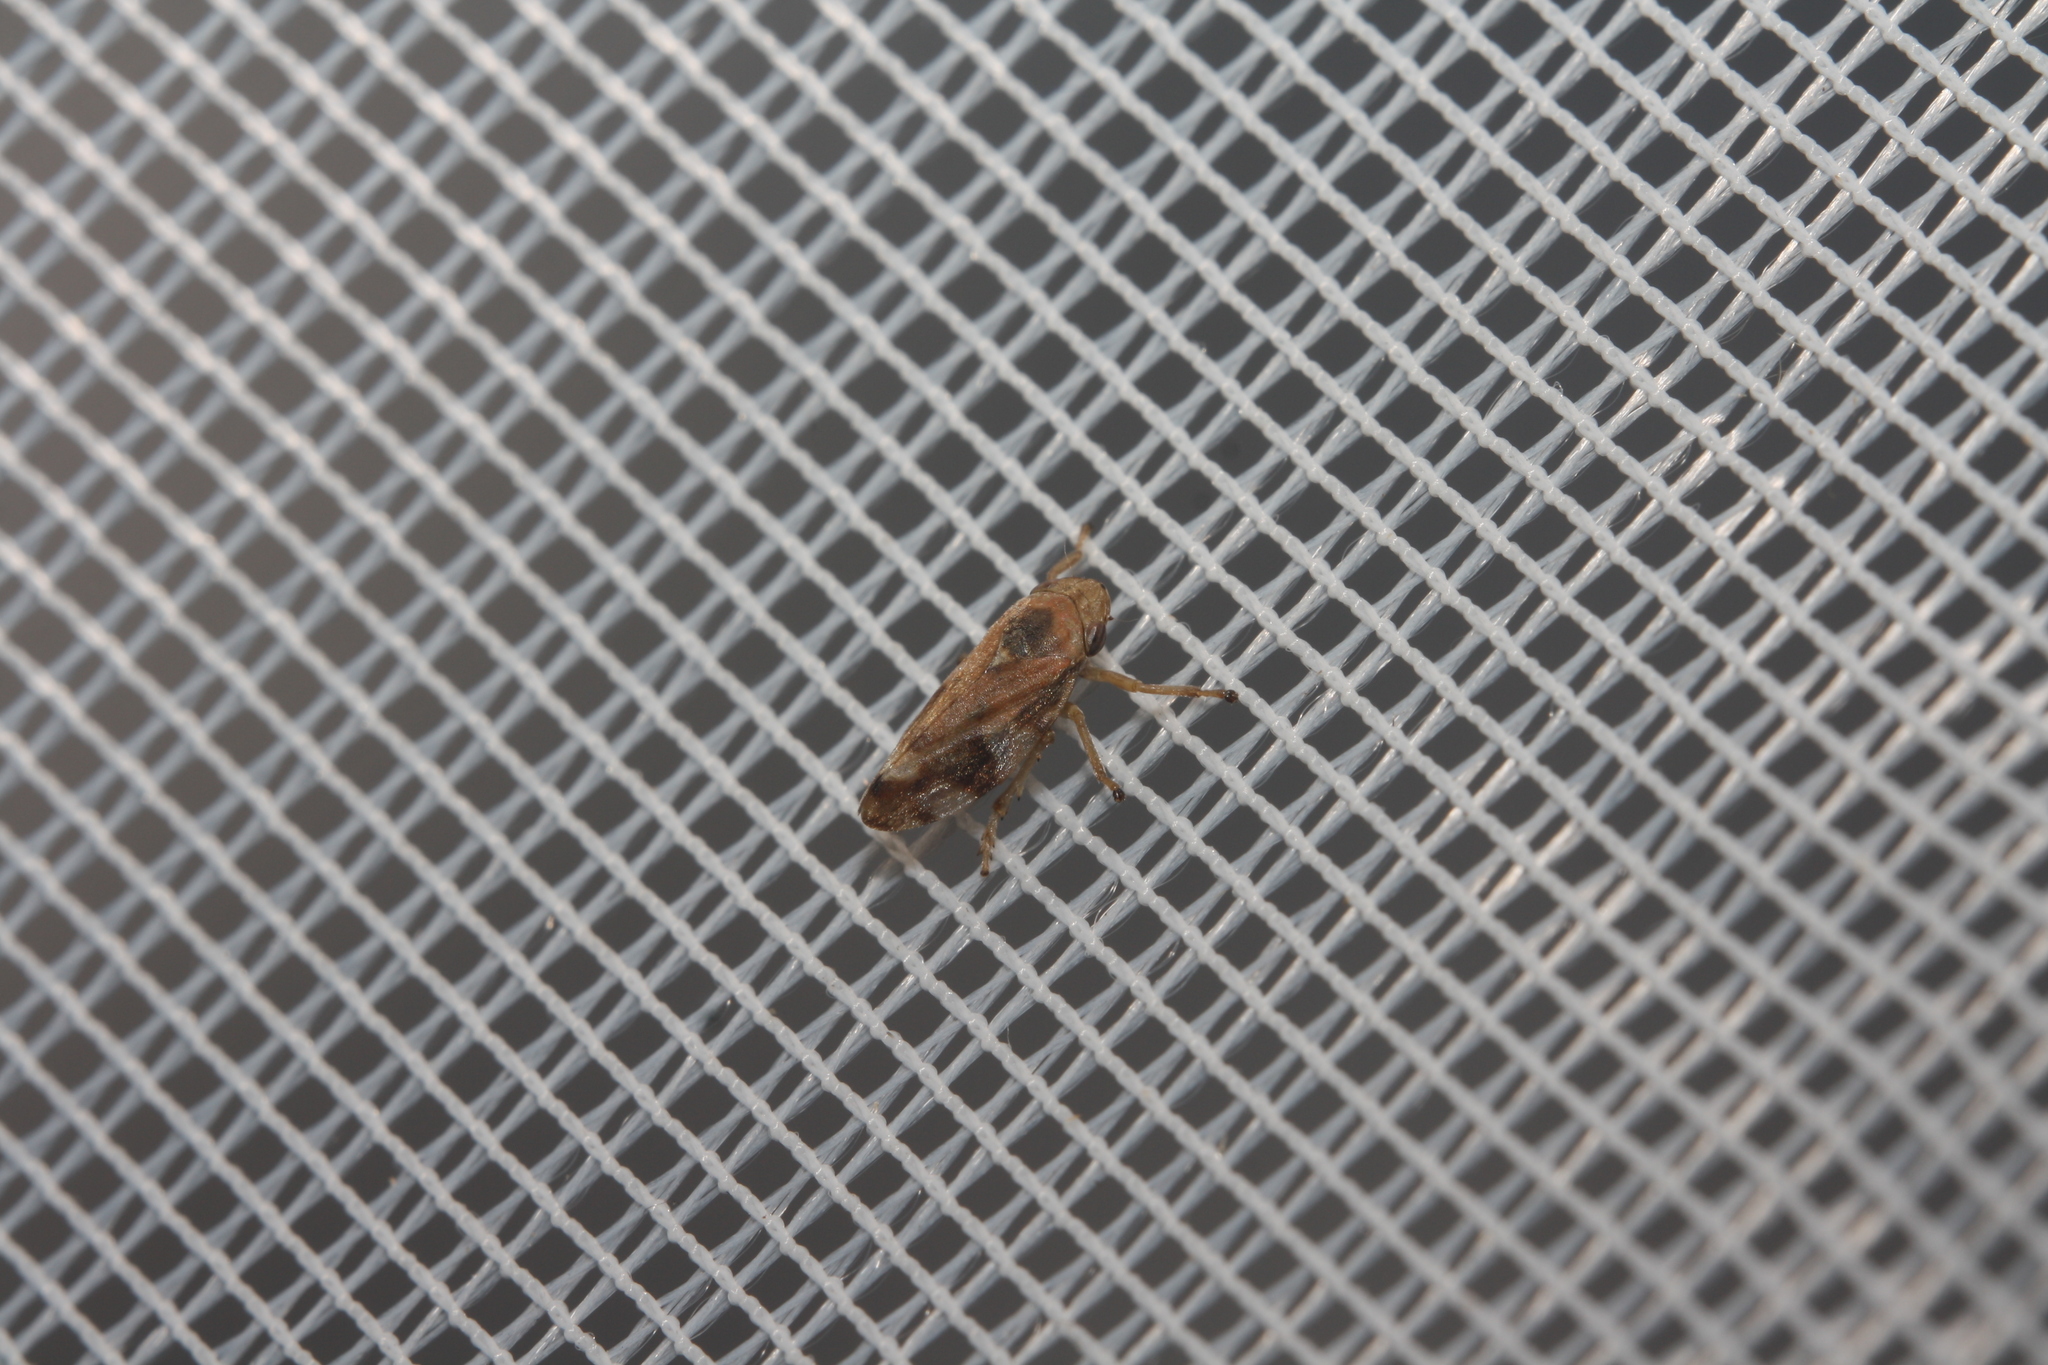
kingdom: Animalia
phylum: Arthropoda
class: Insecta
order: Hemiptera
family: Aphrophoridae
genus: Philaenus
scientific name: Philaenus spumarius
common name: Meadow spittlebug
